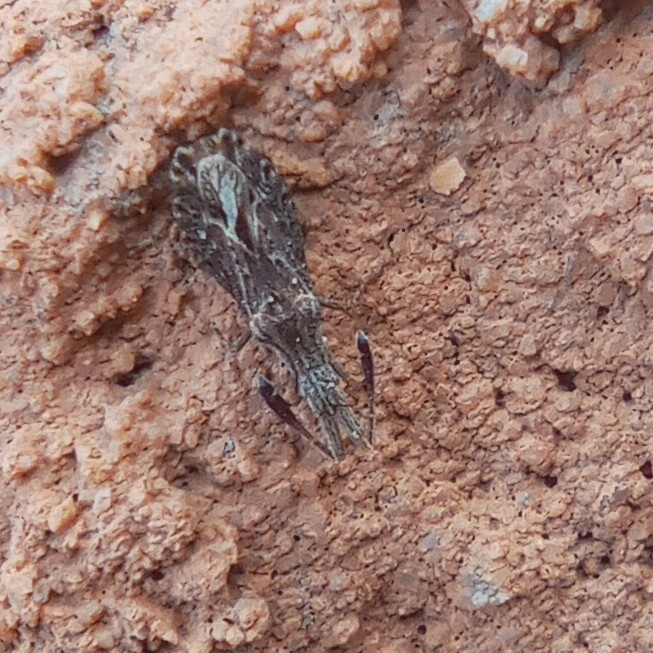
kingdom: Animalia
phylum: Arthropoda
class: Insecta
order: Hemiptera
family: Coreidae
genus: Spathocera
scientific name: Spathocera obscura
